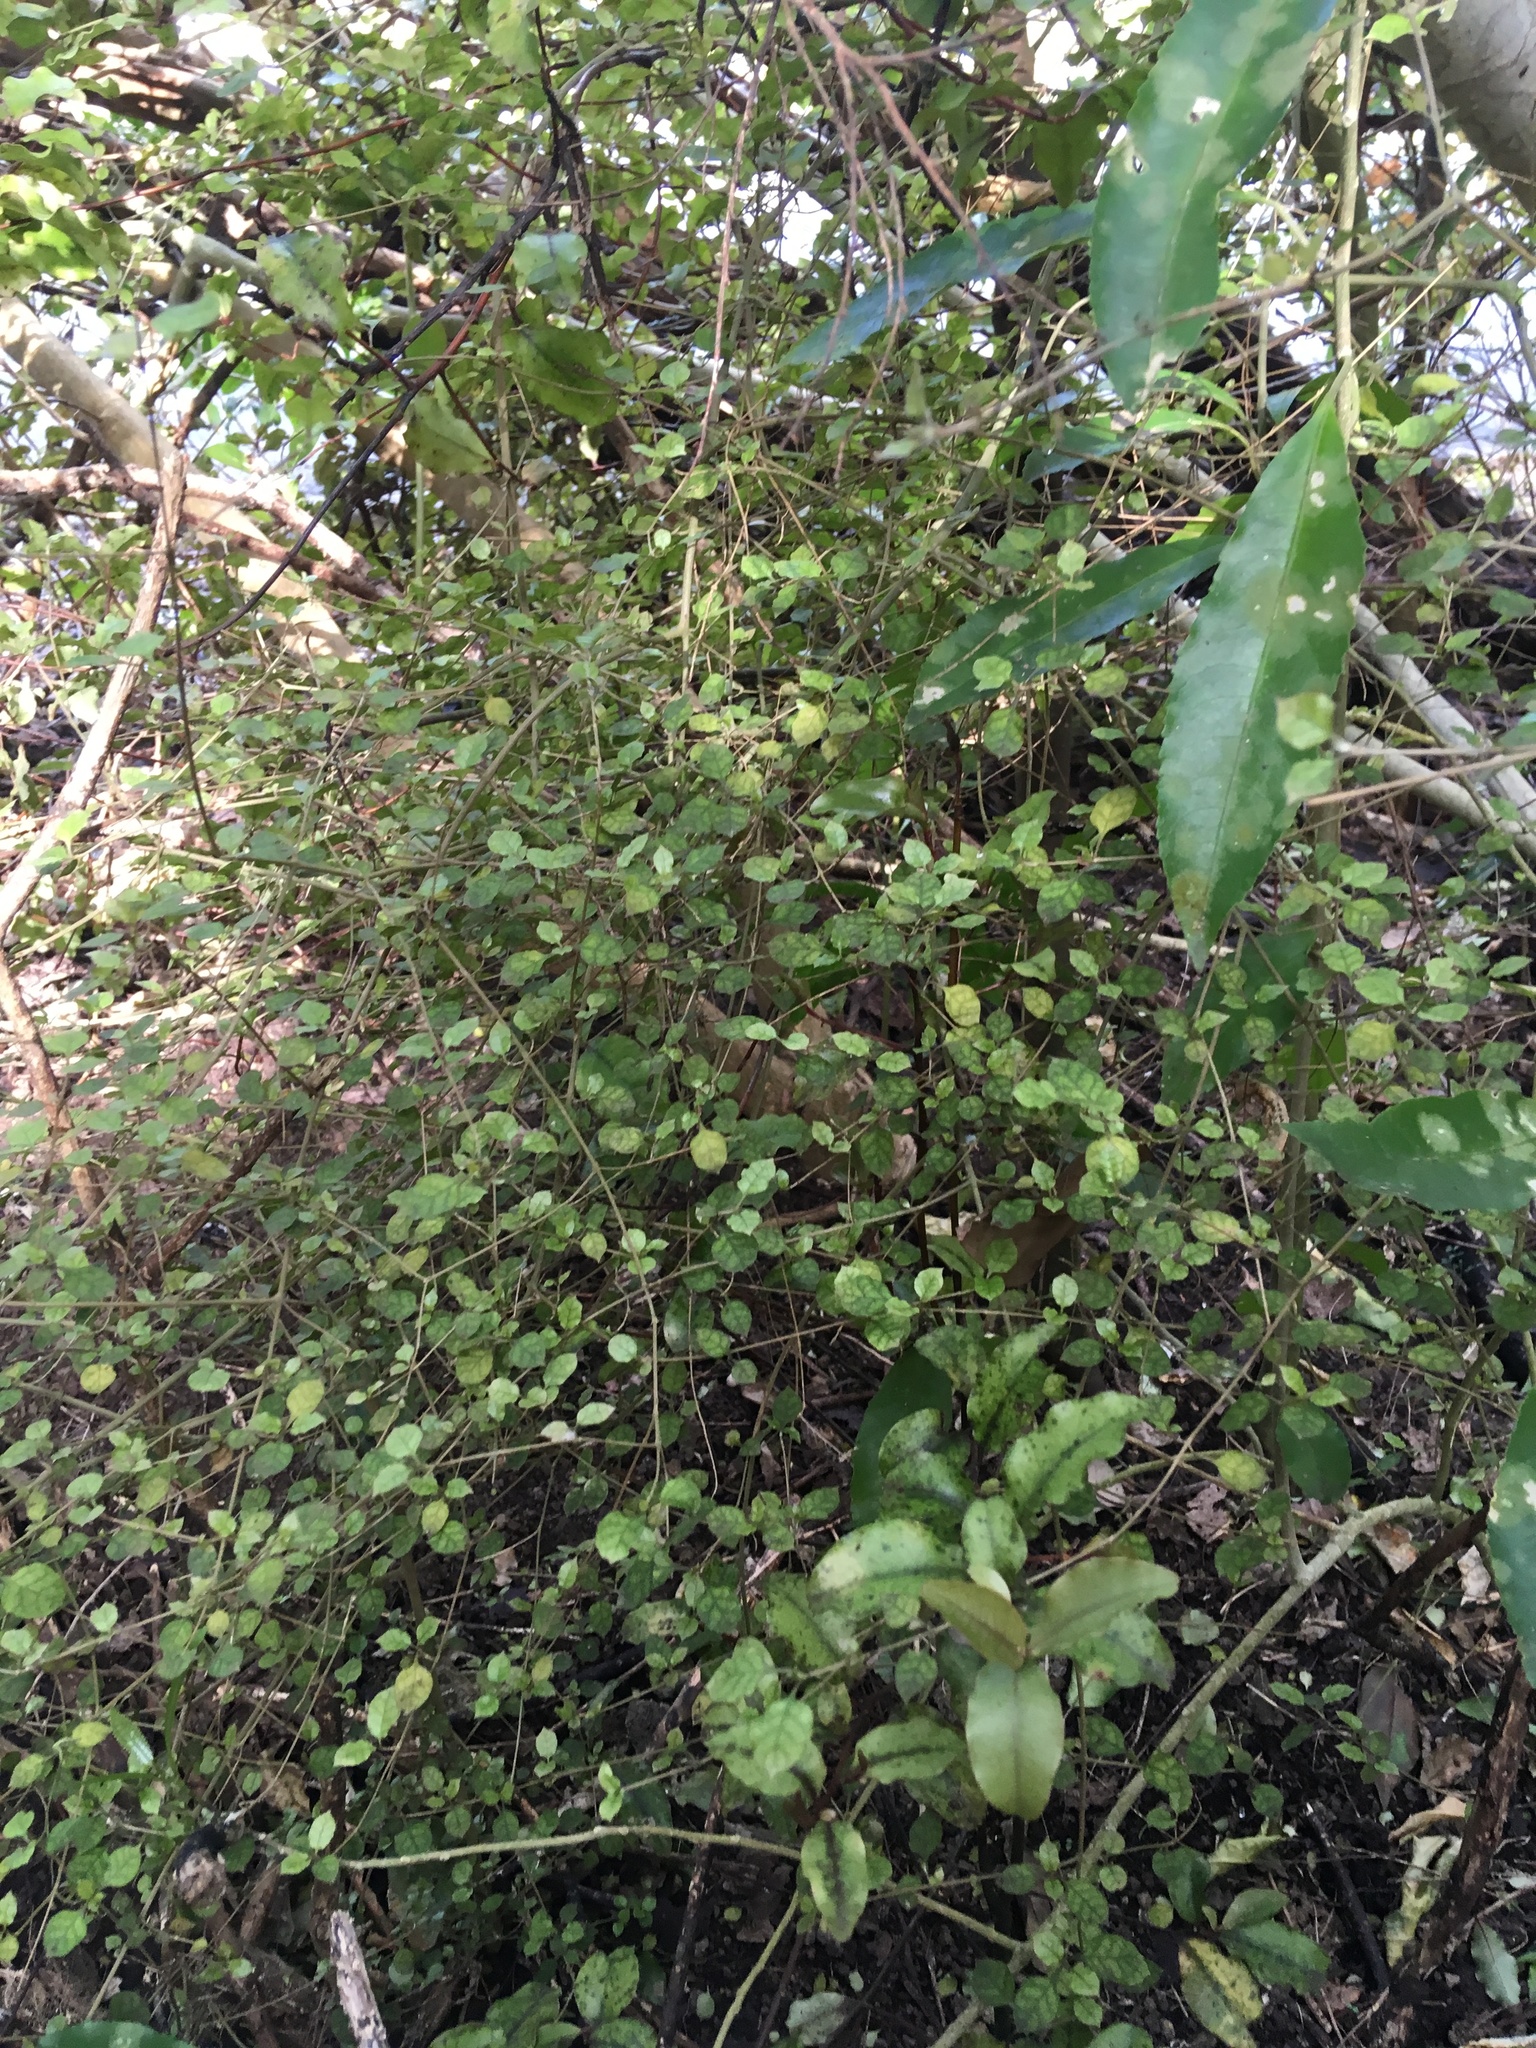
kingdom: Plantae
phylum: Tracheophyta
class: Magnoliopsida
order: Gentianales
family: Rubiaceae
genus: Coprosma
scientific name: Coprosma areolata
